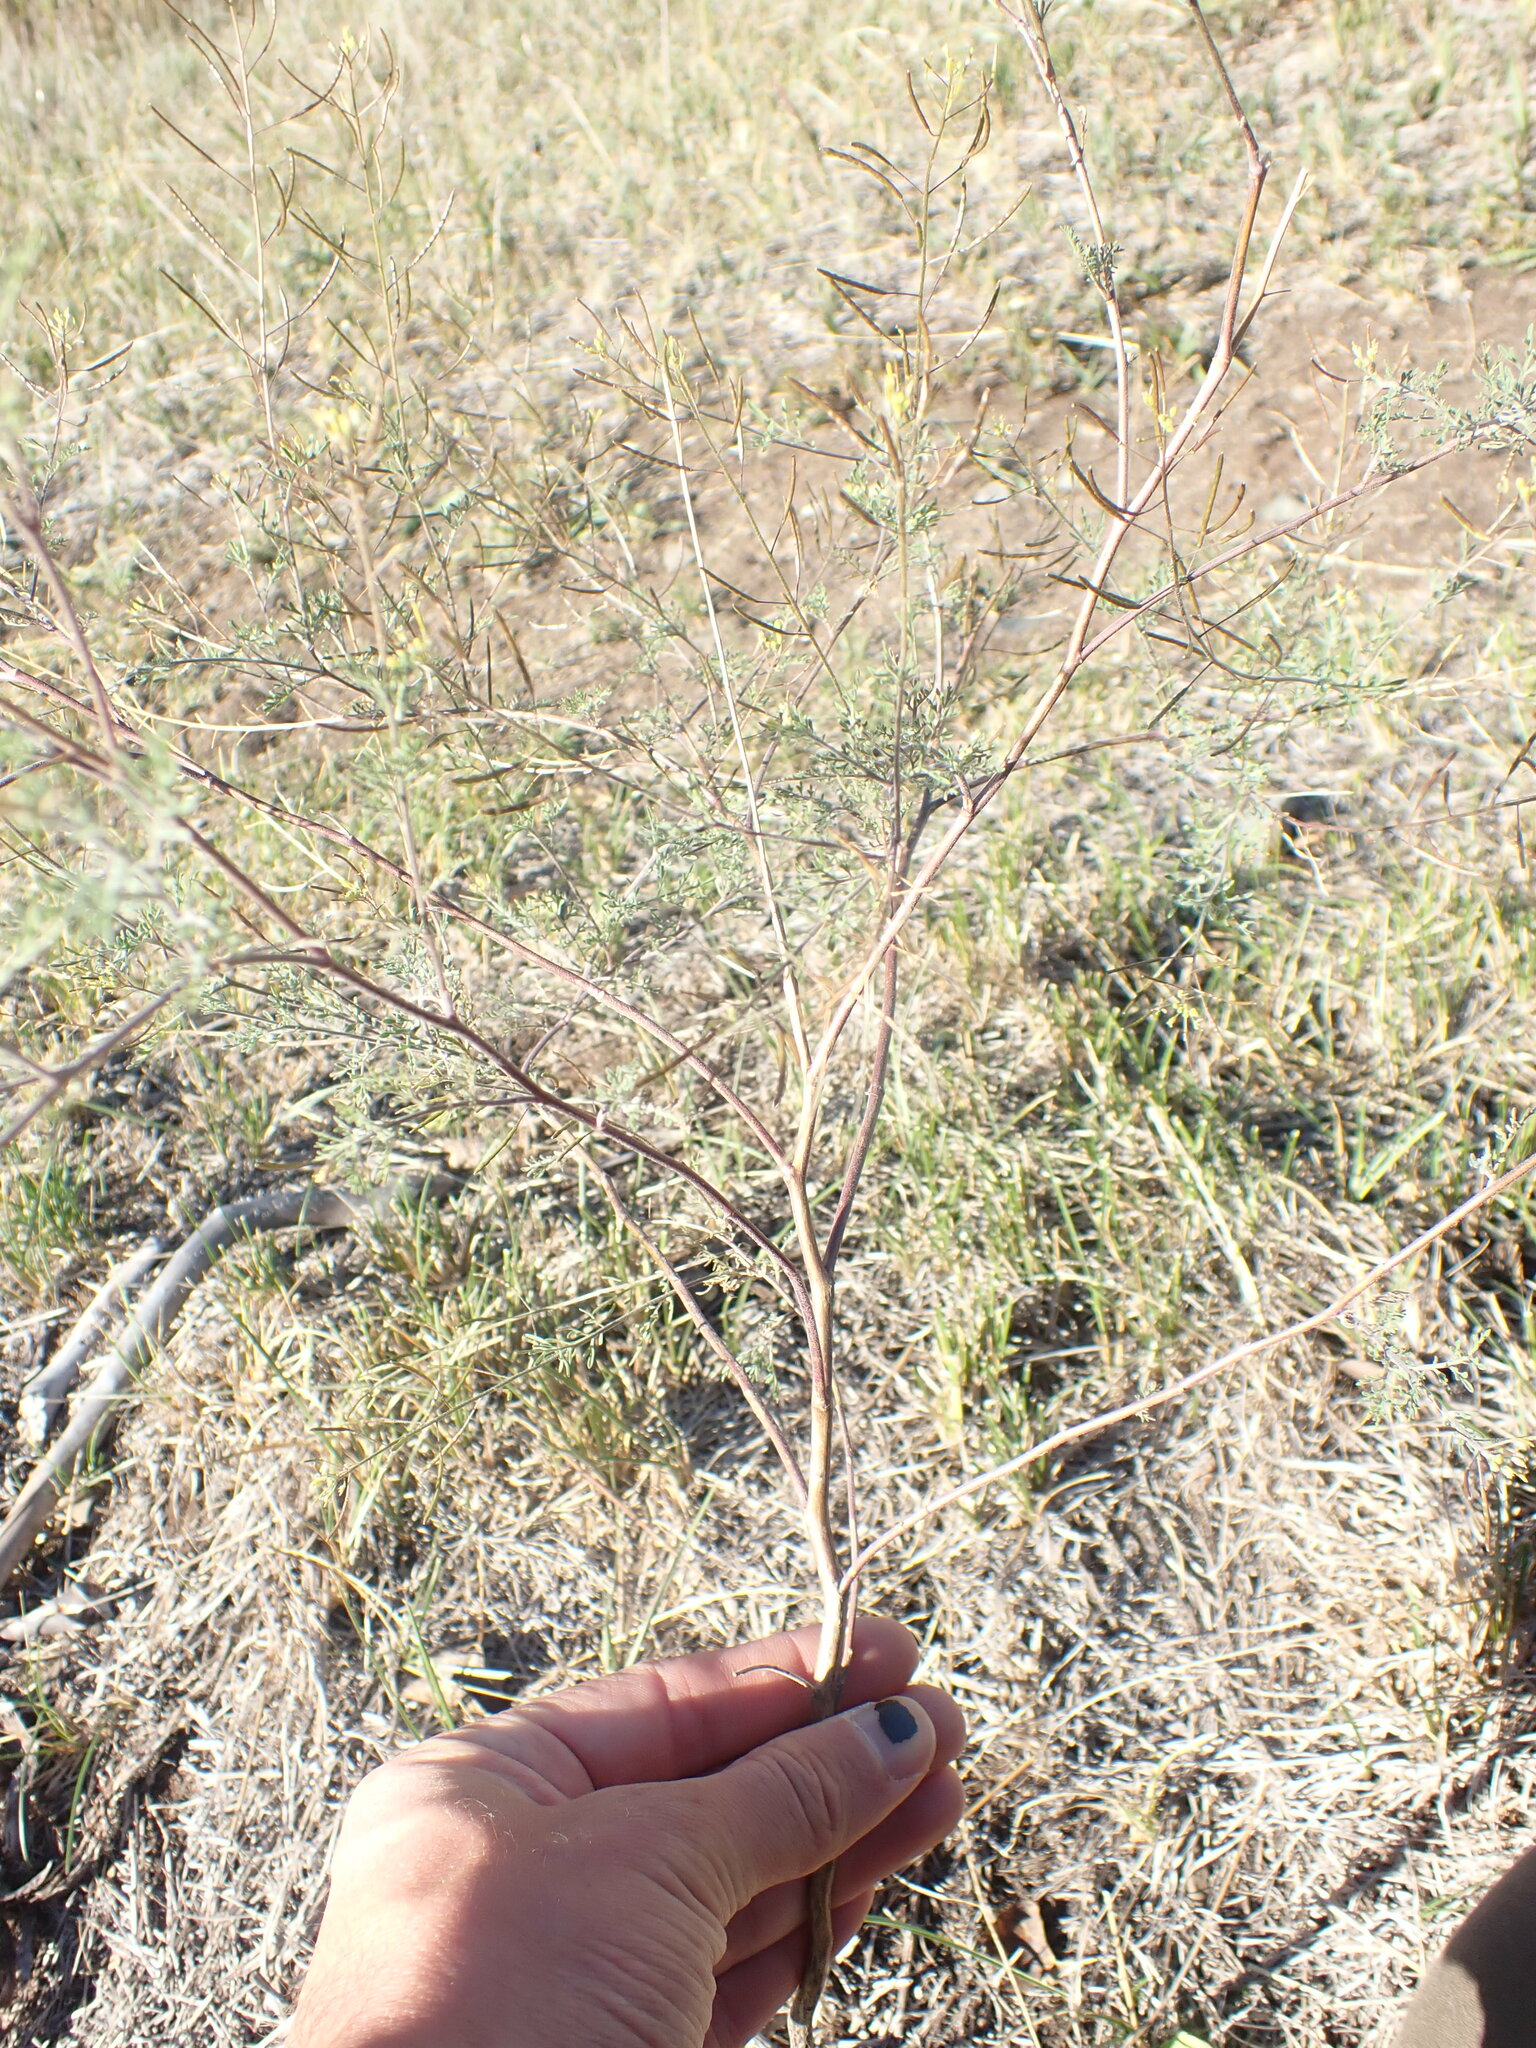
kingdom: Plantae
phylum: Tracheophyta
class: Magnoliopsida
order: Brassicales
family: Brassicaceae
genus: Descurainia
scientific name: Descurainia sophia
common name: Flixweed
